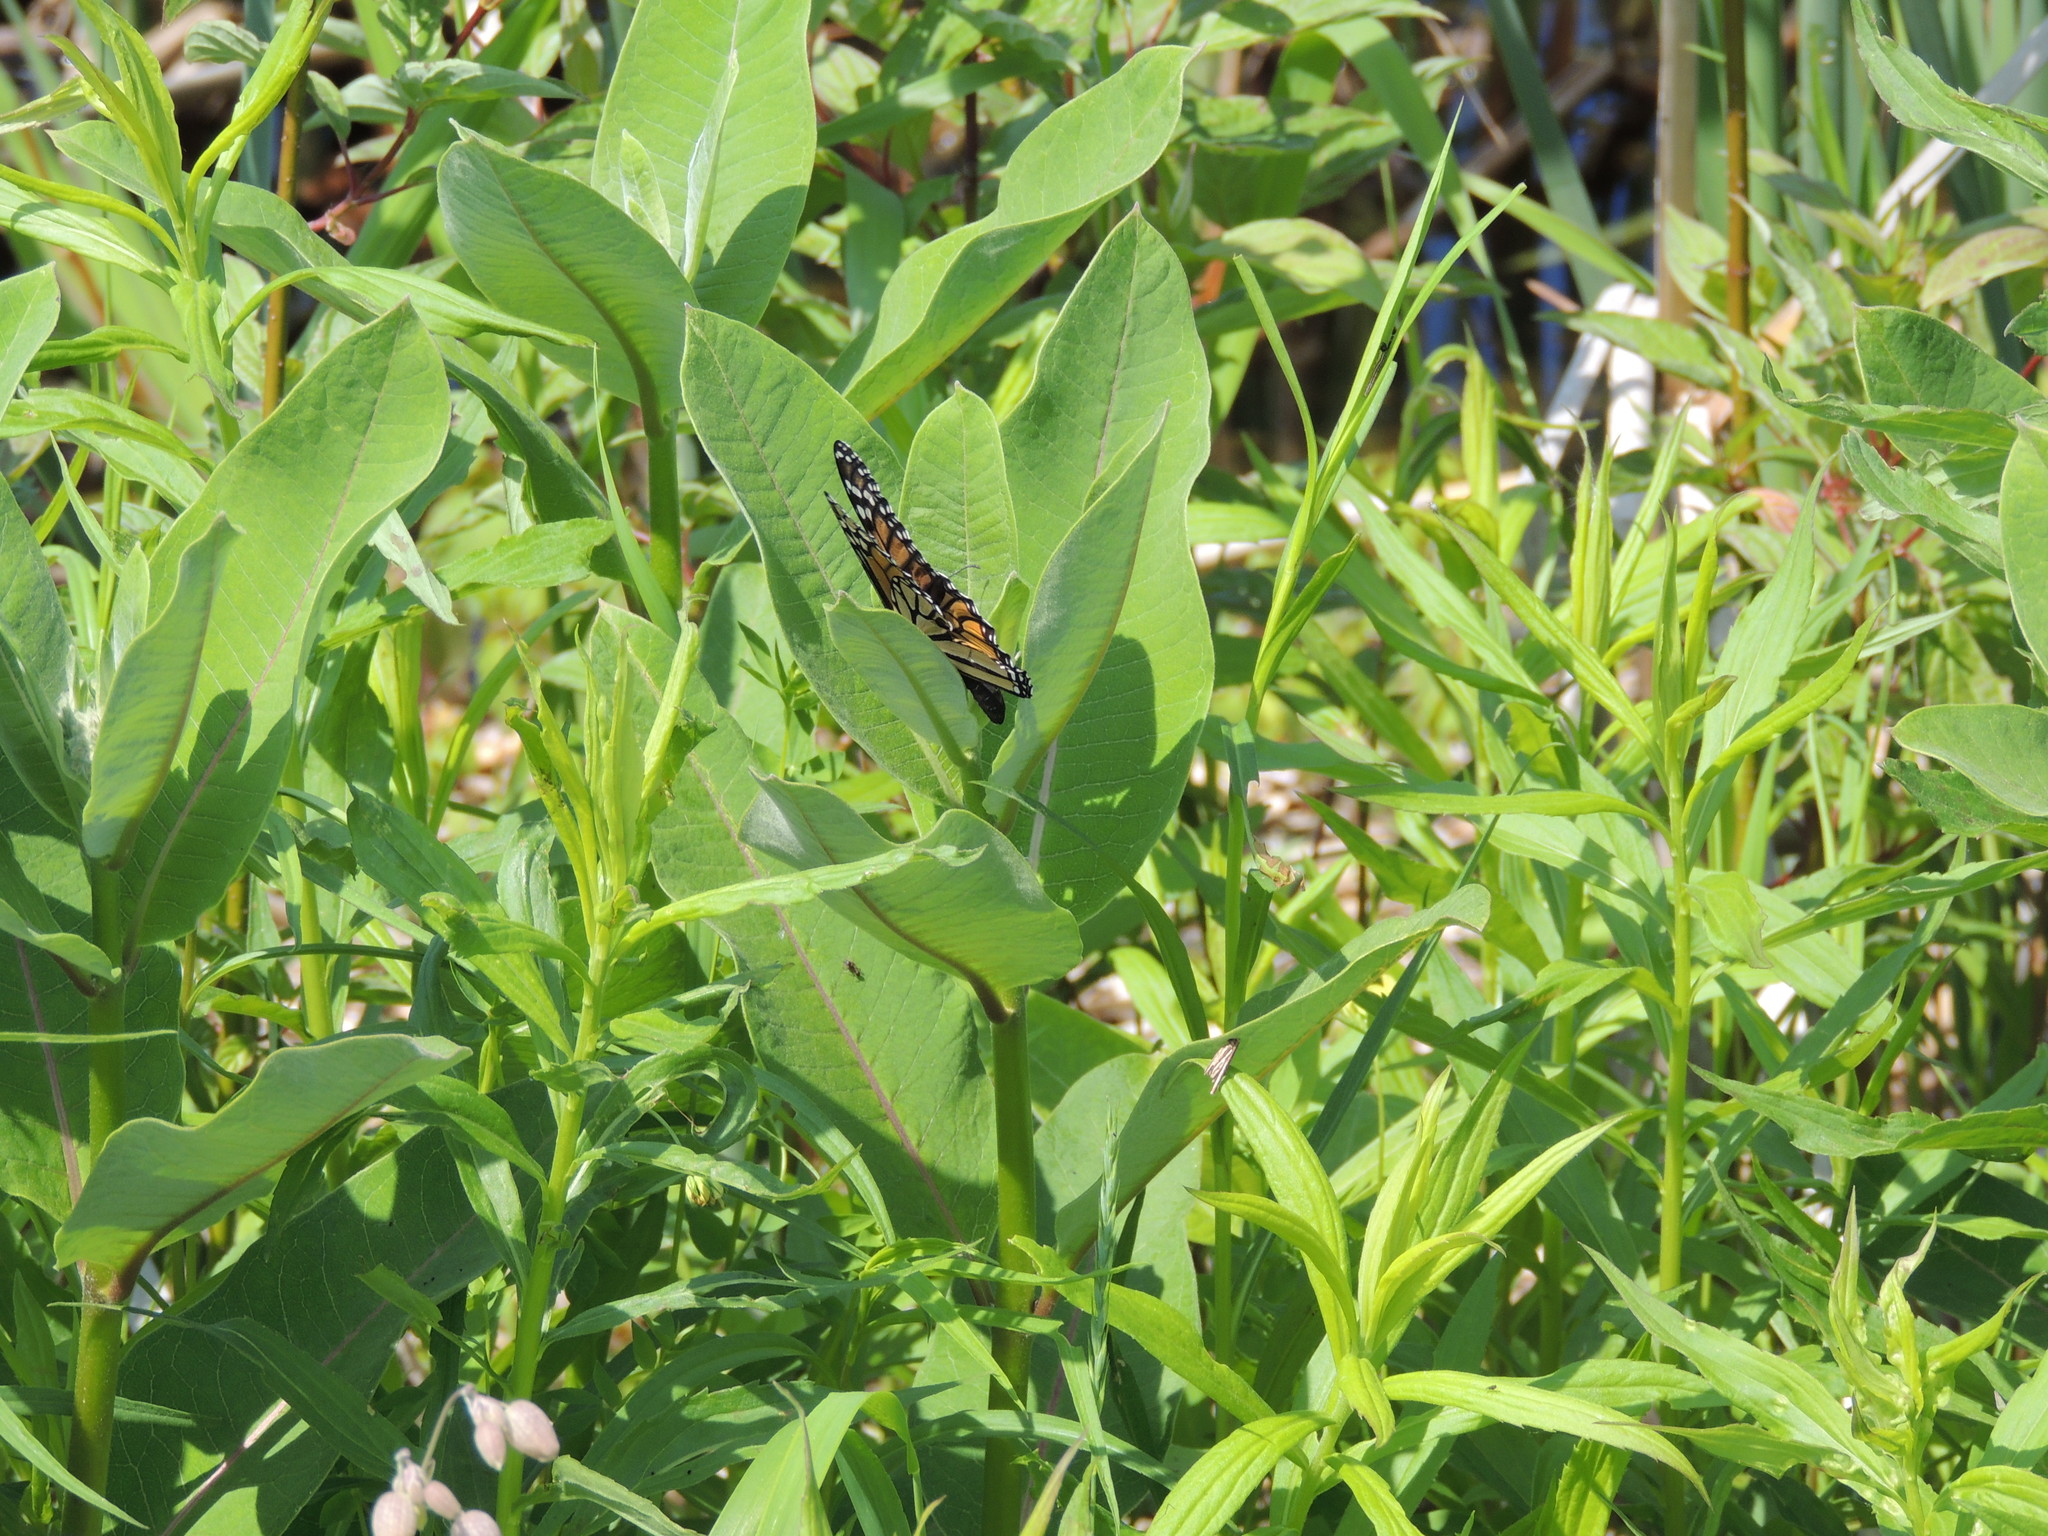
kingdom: Animalia
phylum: Arthropoda
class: Insecta
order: Lepidoptera
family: Nymphalidae
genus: Danaus
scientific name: Danaus plexippus
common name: Monarch
